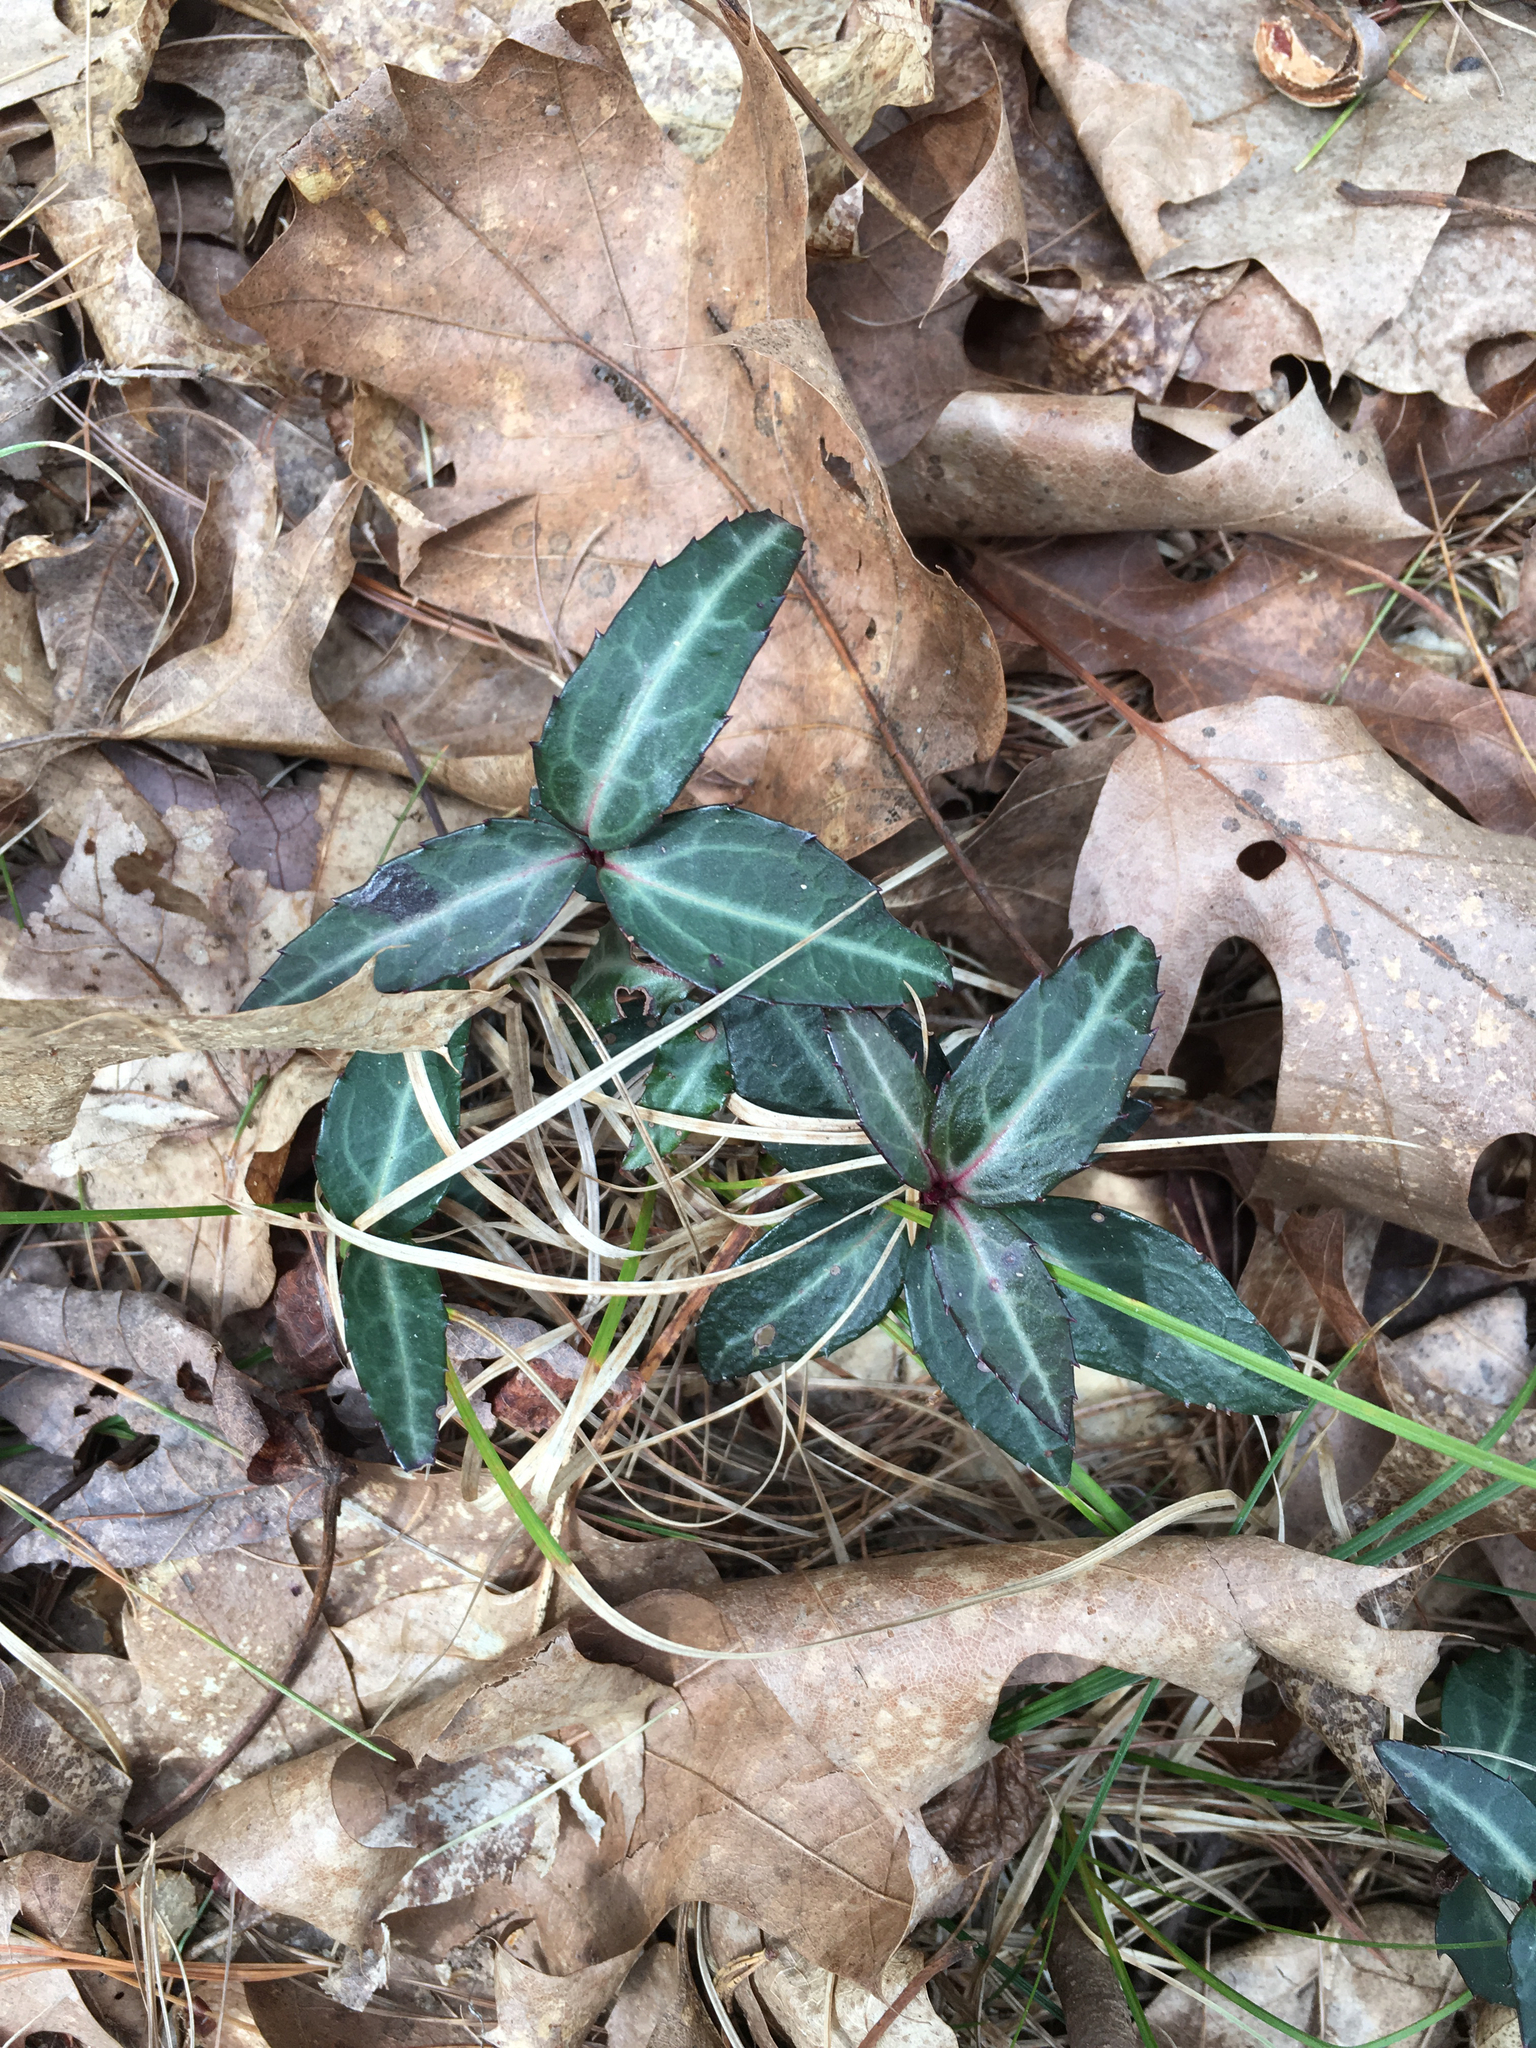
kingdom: Plantae
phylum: Tracheophyta
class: Magnoliopsida
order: Ericales
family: Ericaceae
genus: Chimaphila
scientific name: Chimaphila maculata
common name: Spotted pipsissewa
